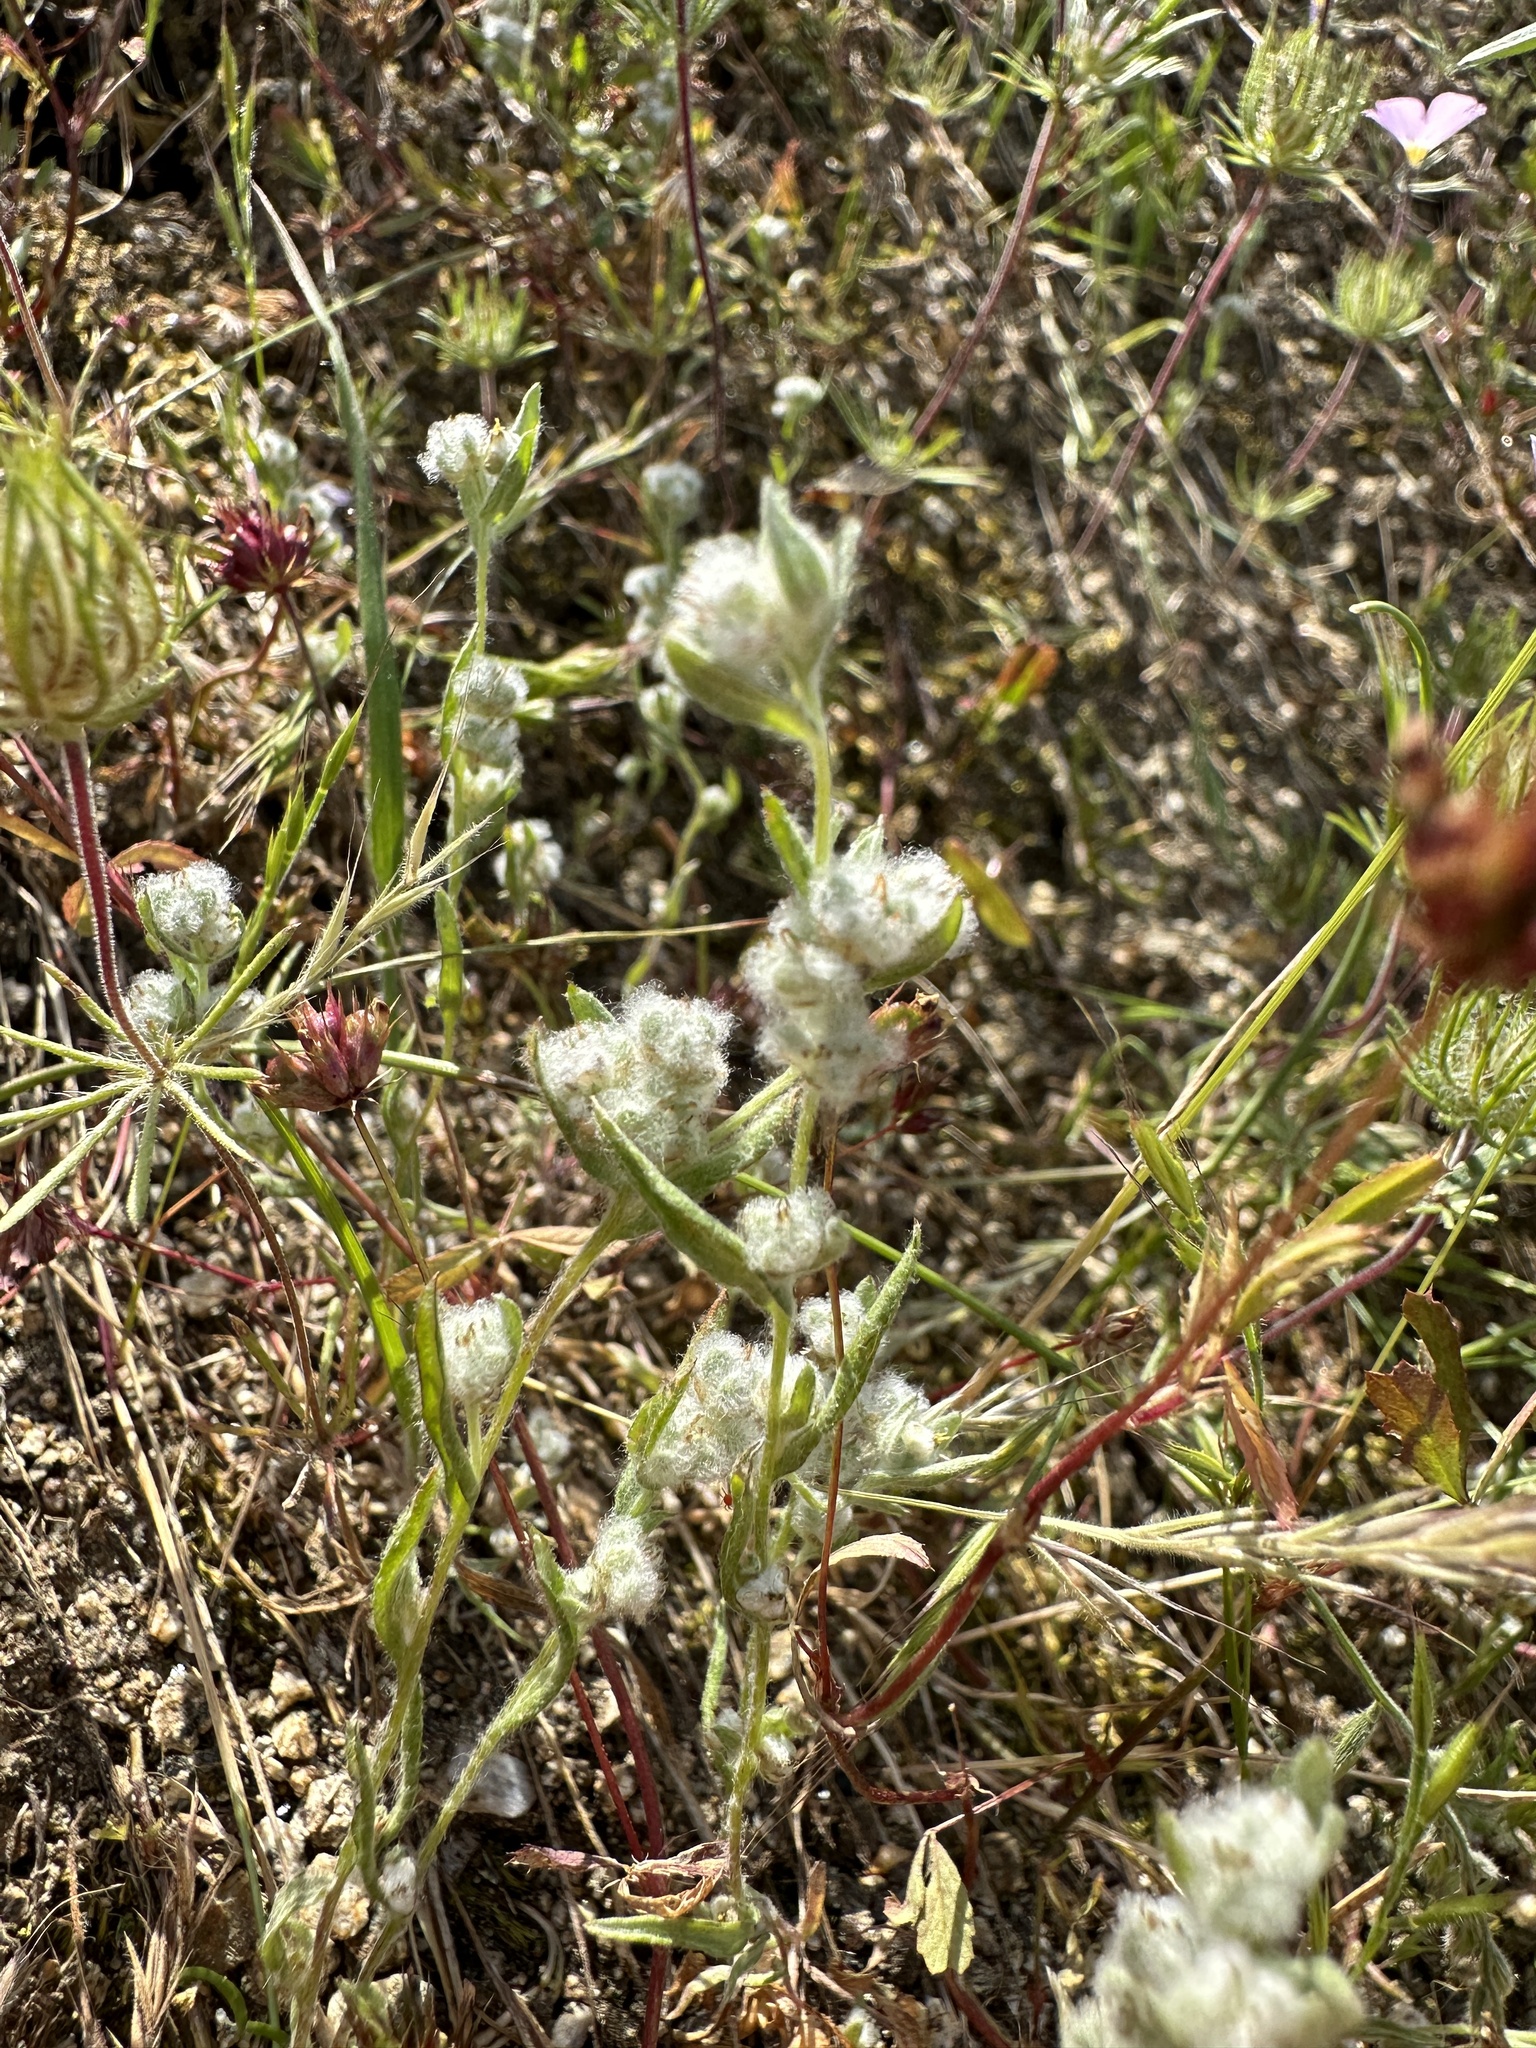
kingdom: Plantae
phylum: Tracheophyta
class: Magnoliopsida
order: Asterales
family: Asteraceae
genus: Bombycilaena
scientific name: Bombycilaena californica
